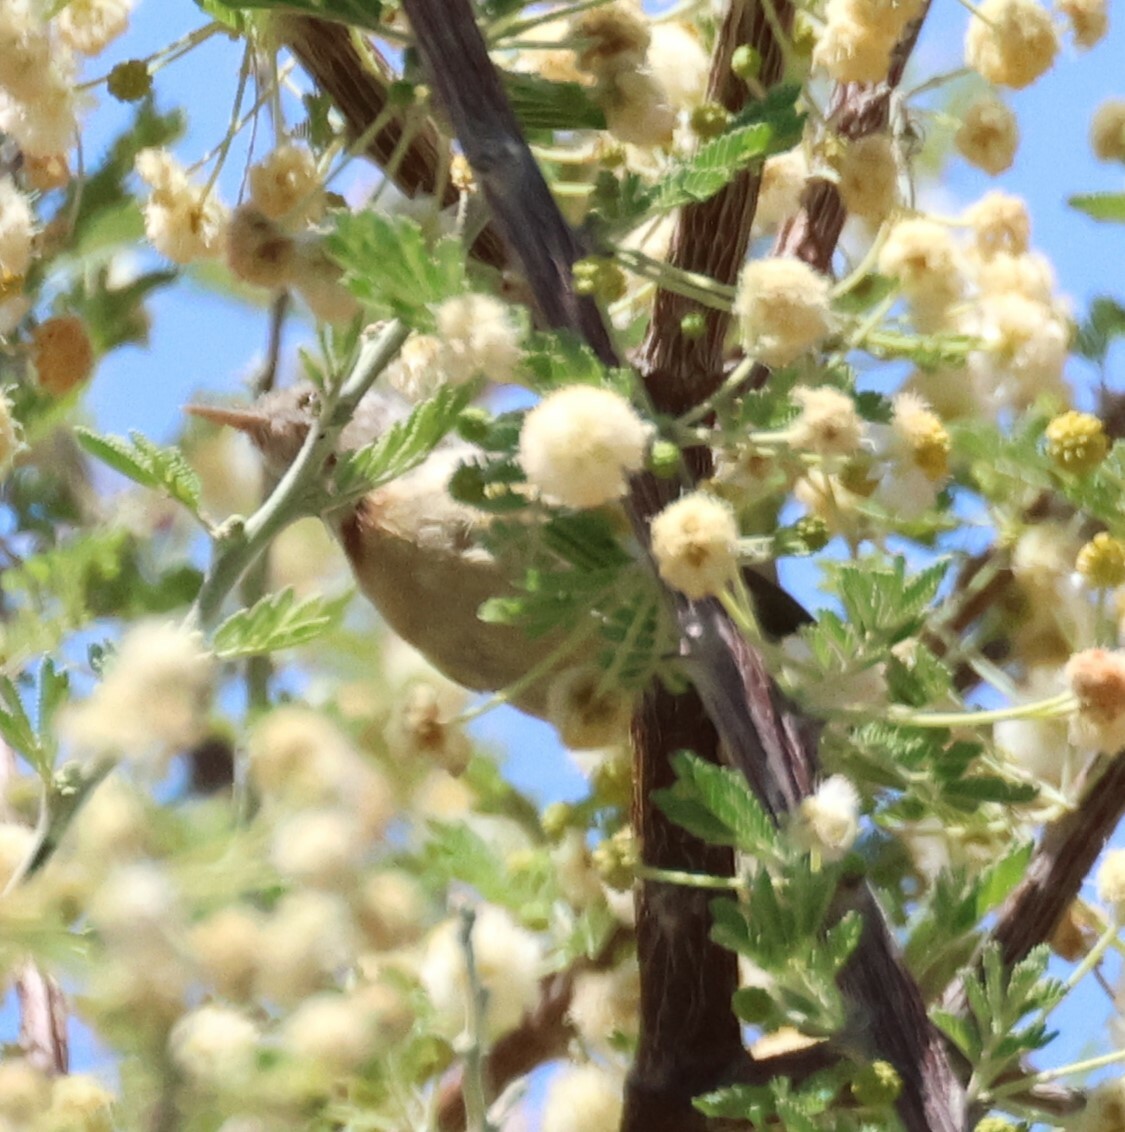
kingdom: Animalia
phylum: Chordata
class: Aves
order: Passeriformes
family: Cisticolidae
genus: Eremomela
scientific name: Eremomela usticollis
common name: Burnt-neck eremomela
